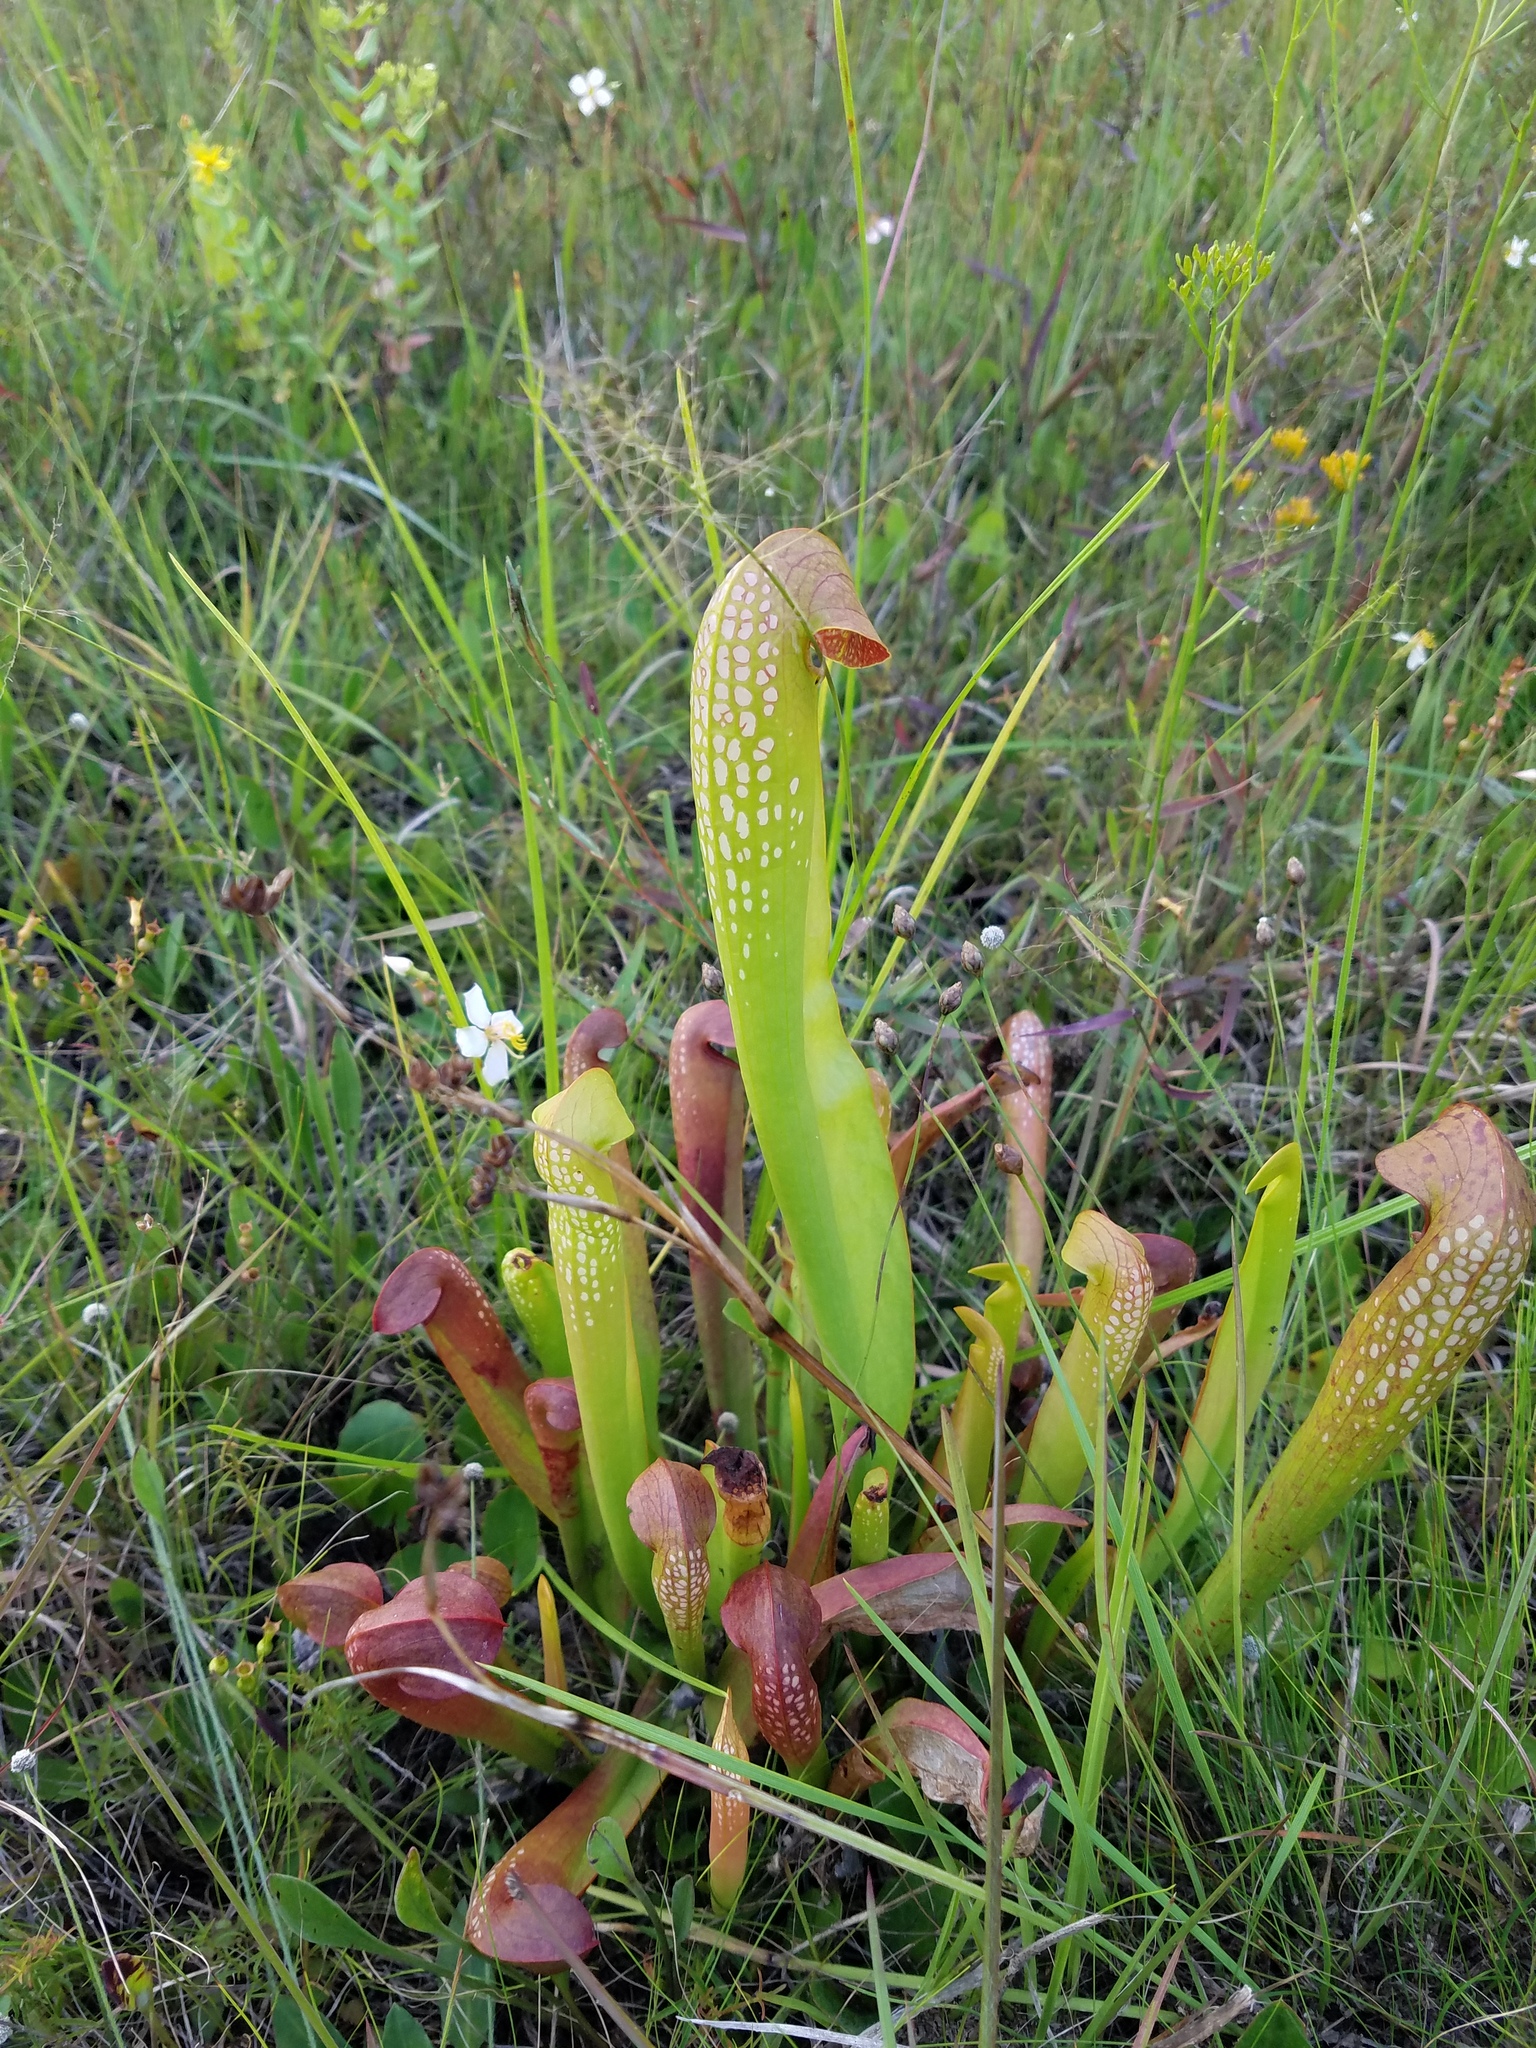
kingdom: Plantae
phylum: Tracheophyta
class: Magnoliopsida
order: Ericales
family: Sarraceniaceae
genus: Sarracenia
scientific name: Sarracenia minor
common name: Rainhat-trumpet
